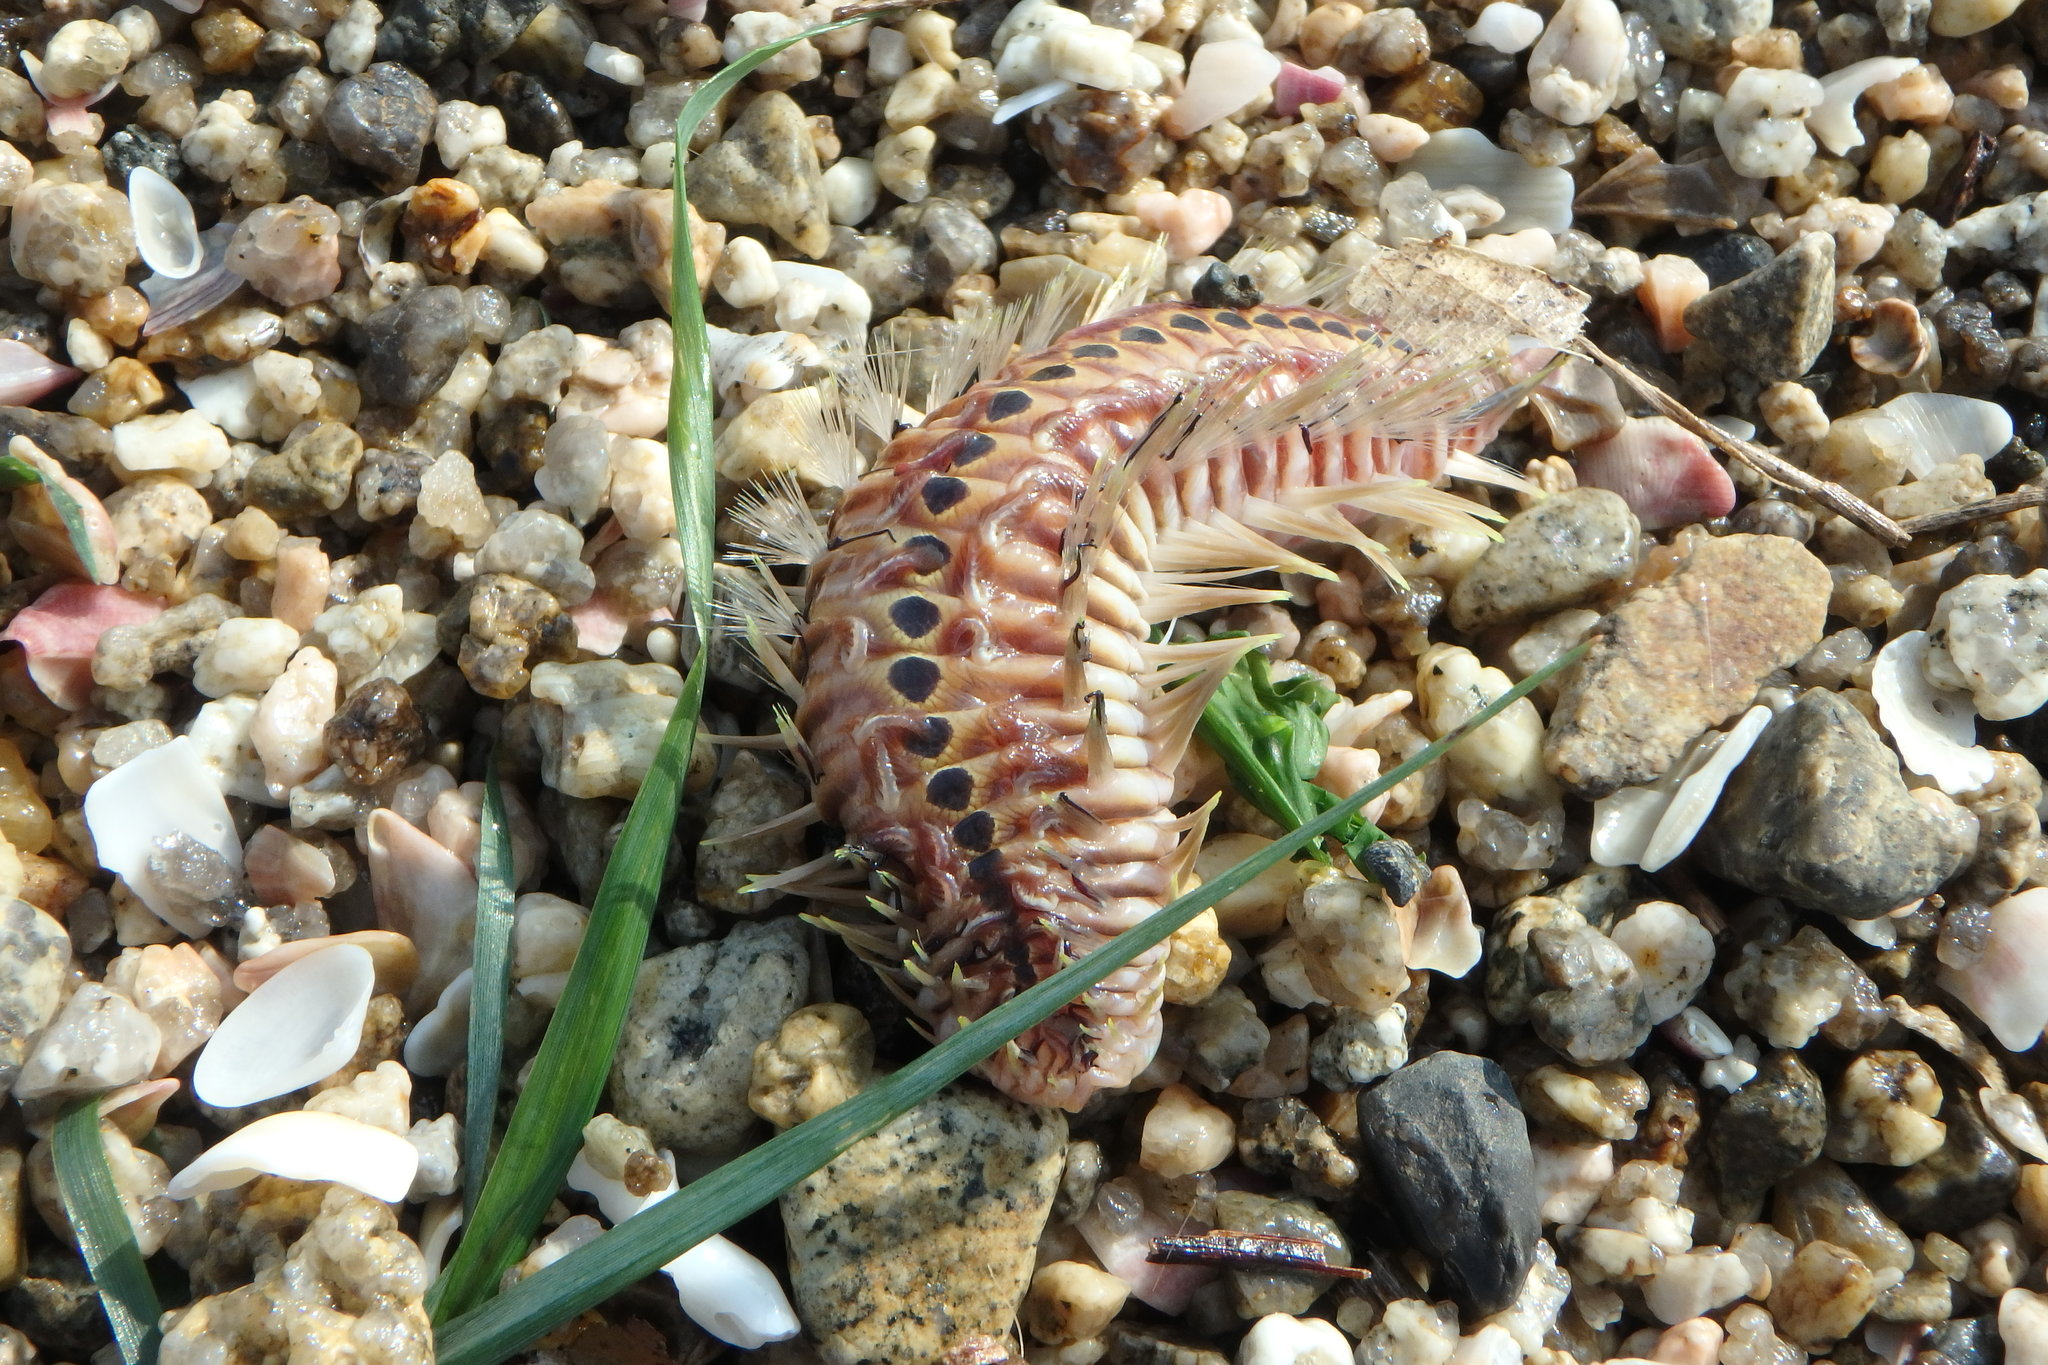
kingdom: Animalia
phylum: Annelida
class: Polychaeta
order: Amphinomida
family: Amphinomidae
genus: Chloeia
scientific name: Chloeia flava
